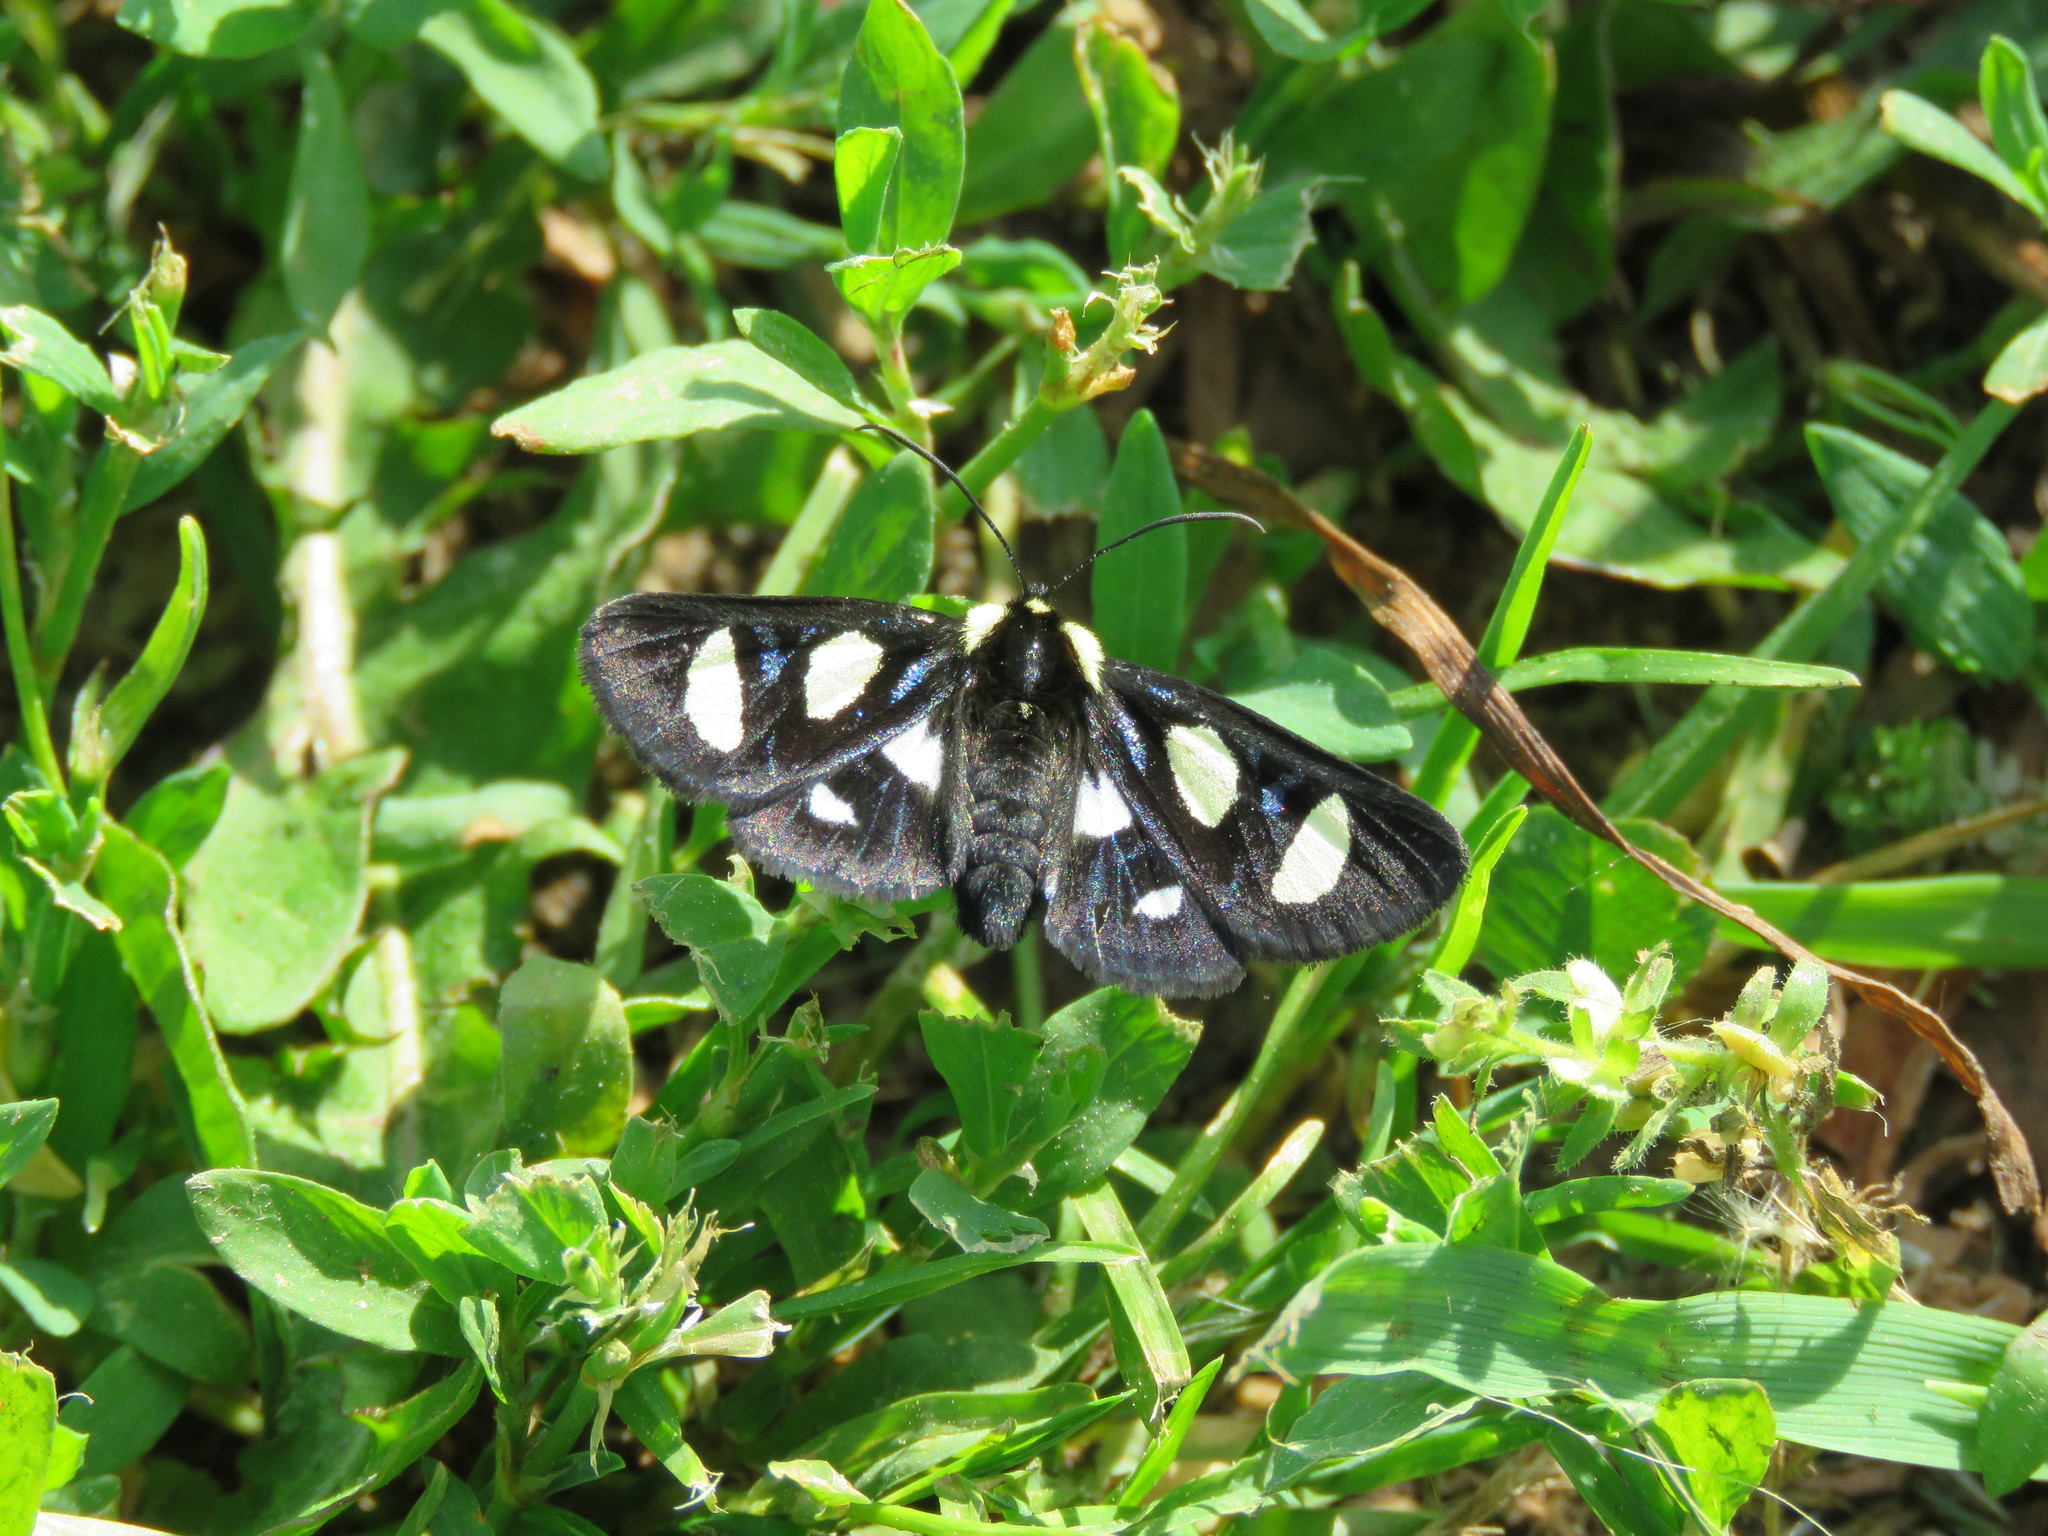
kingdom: Animalia
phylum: Arthropoda
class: Insecta
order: Lepidoptera
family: Noctuidae
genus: Alypia
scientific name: Alypia octomaculata
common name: Eight-spotted forester
